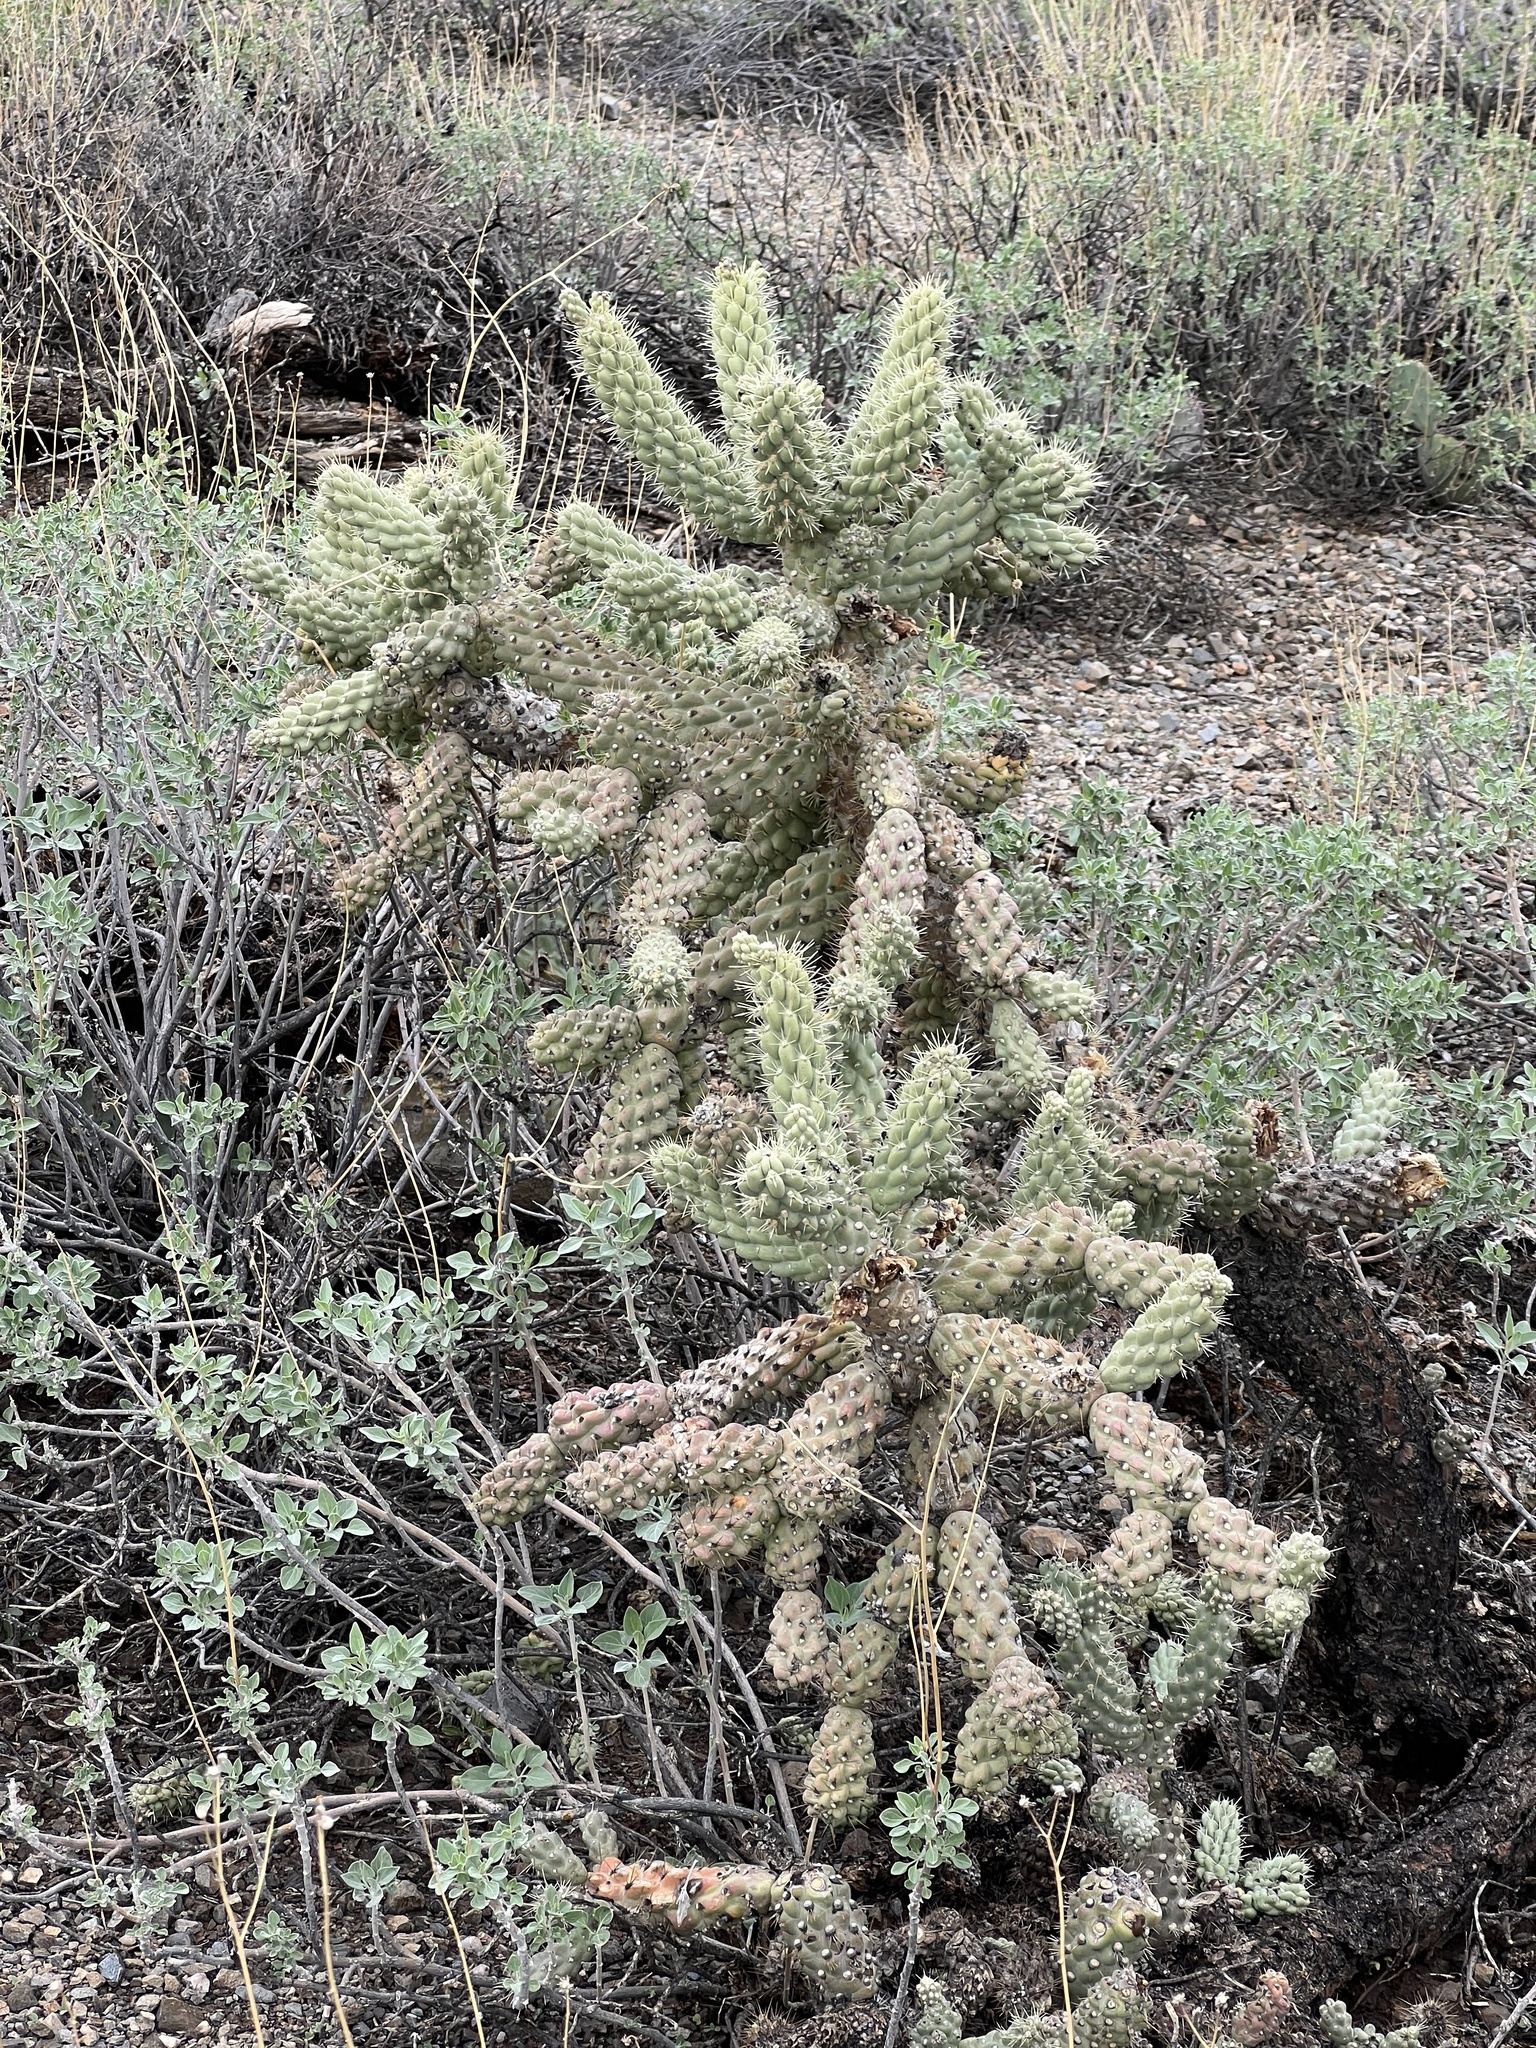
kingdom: Plantae
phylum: Tracheophyta
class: Magnoliopsida
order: Caryophyllales
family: Cactaceae
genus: Cylindropuntia
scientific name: Cylindropuntia fulgida
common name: Jumping cholla
